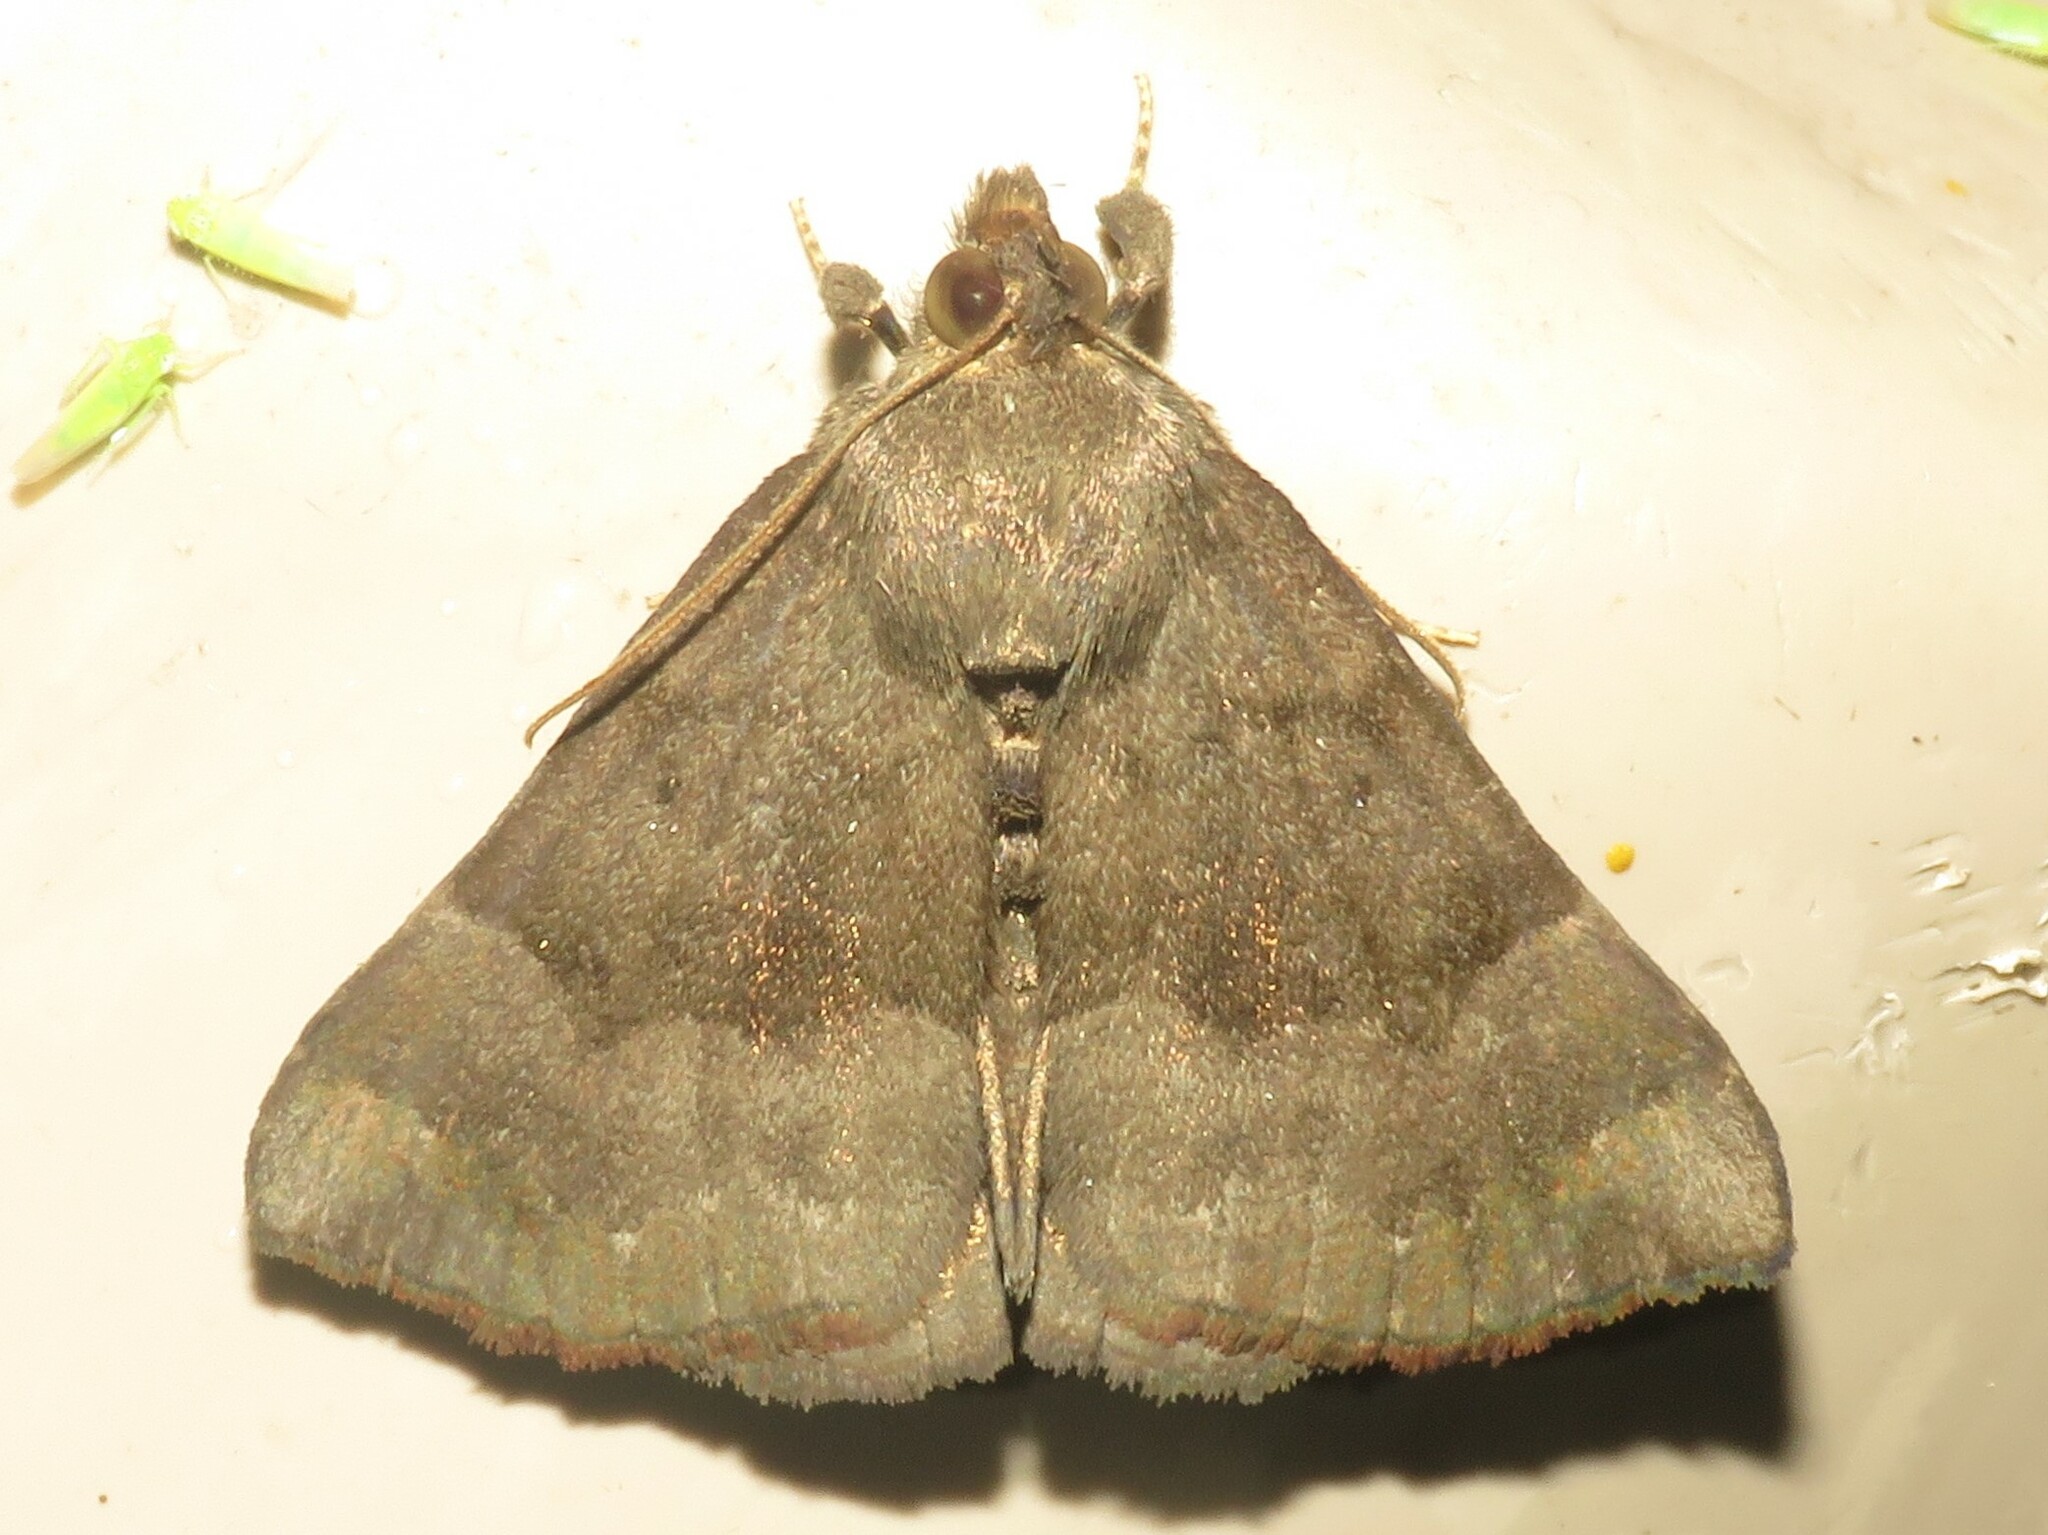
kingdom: Animalia
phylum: Arthropoda
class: Insecta
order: Lepidoptera
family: Erebidae
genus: Hypena
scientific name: Hypena madefactalis
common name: Gray-edged snout
